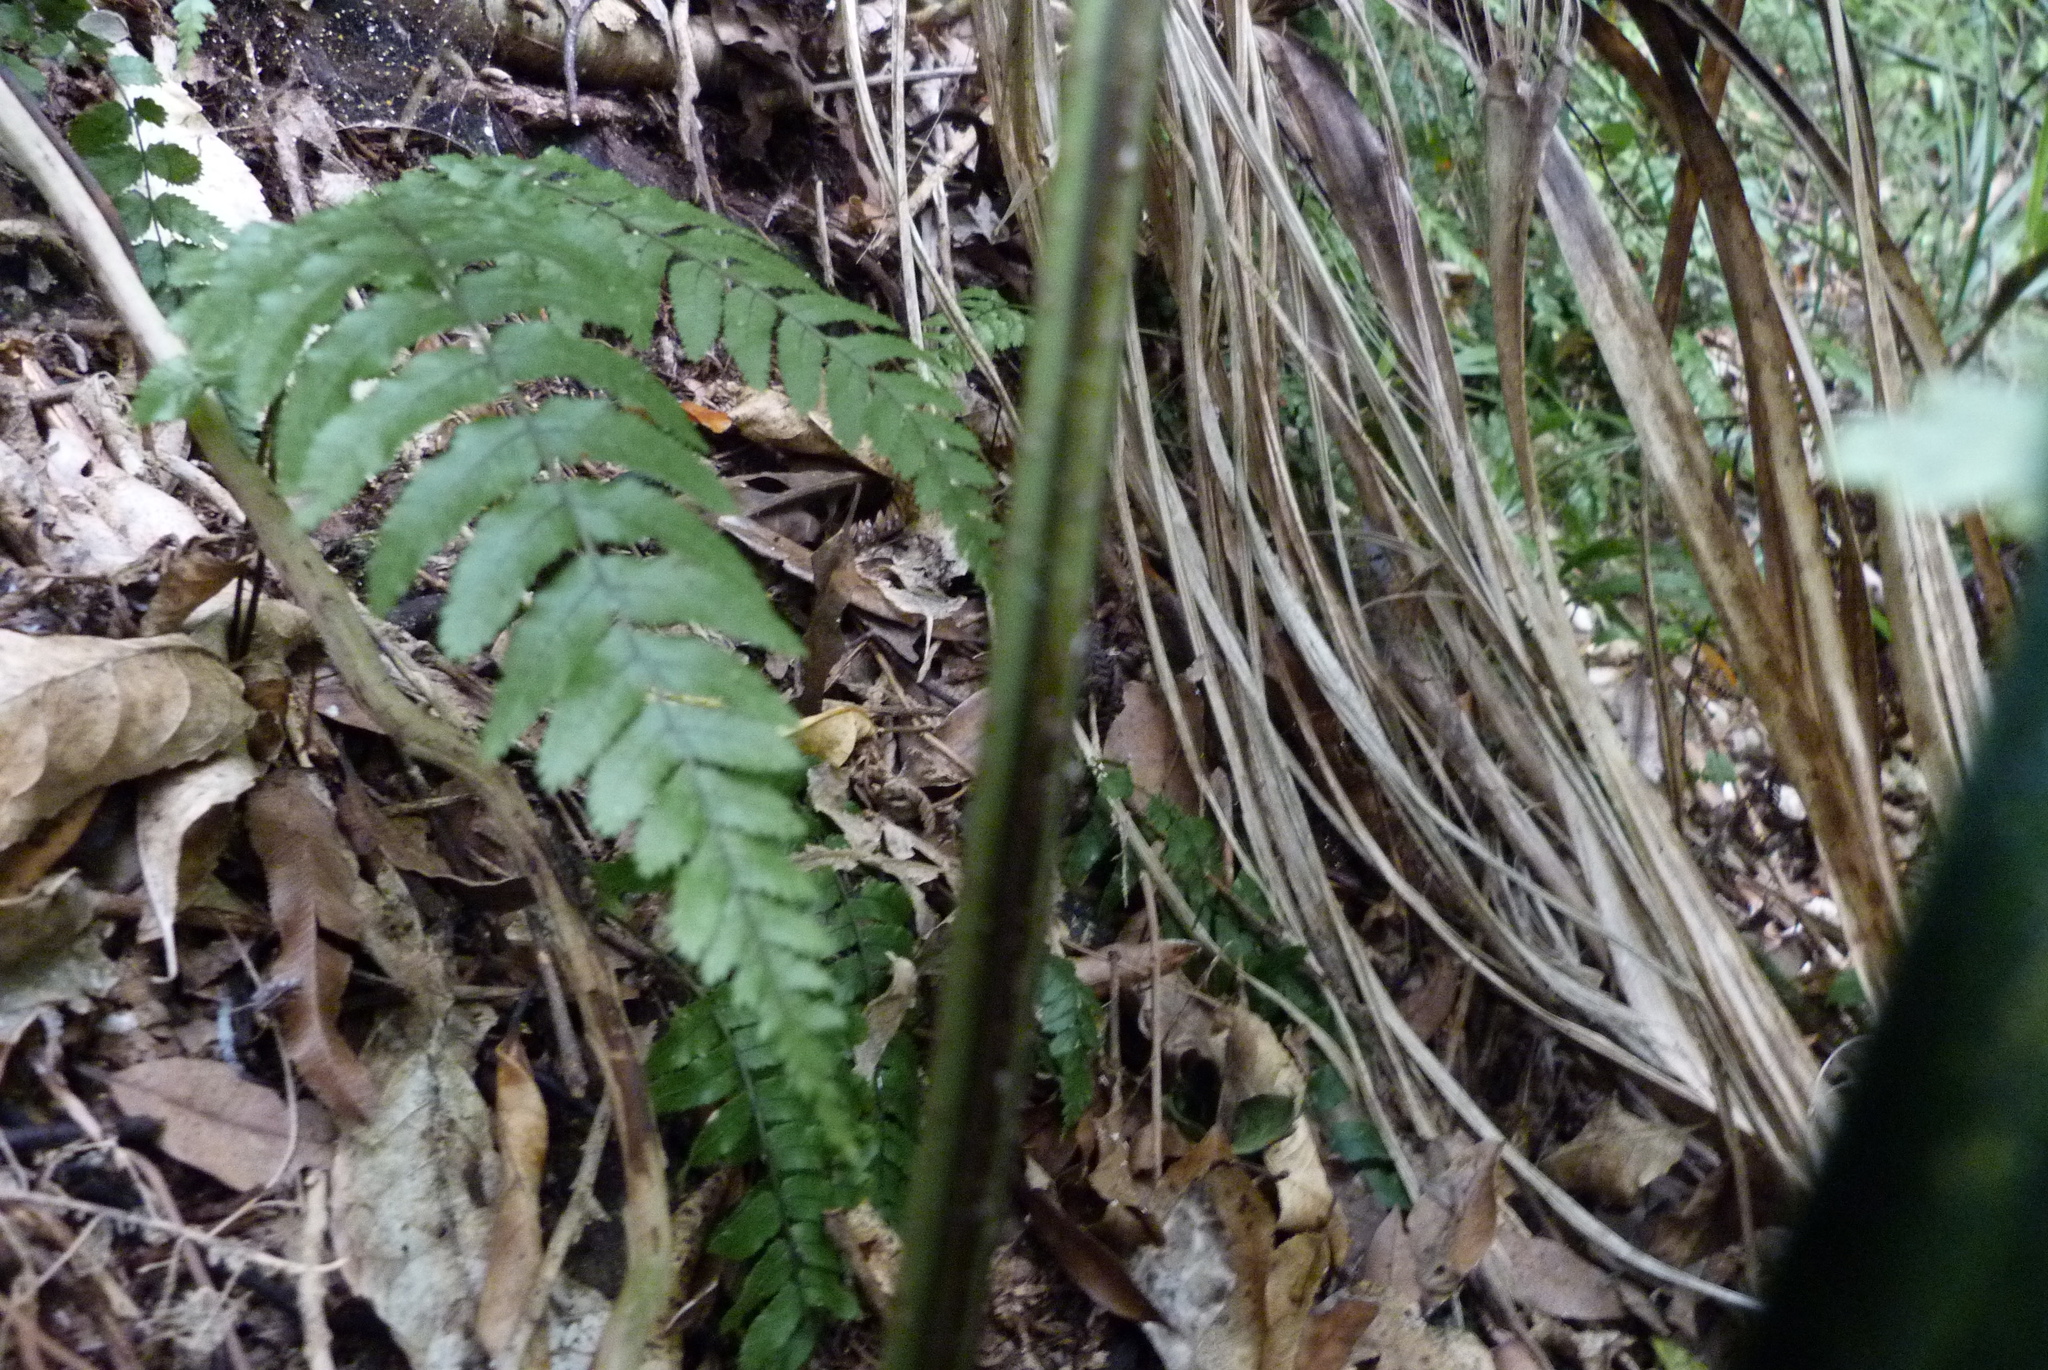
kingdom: Plantae
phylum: Tracheophyta
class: Polypodiopsida
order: Polypodiales
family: Blechnaceae
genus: Icarus
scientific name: Icarus filiformis
